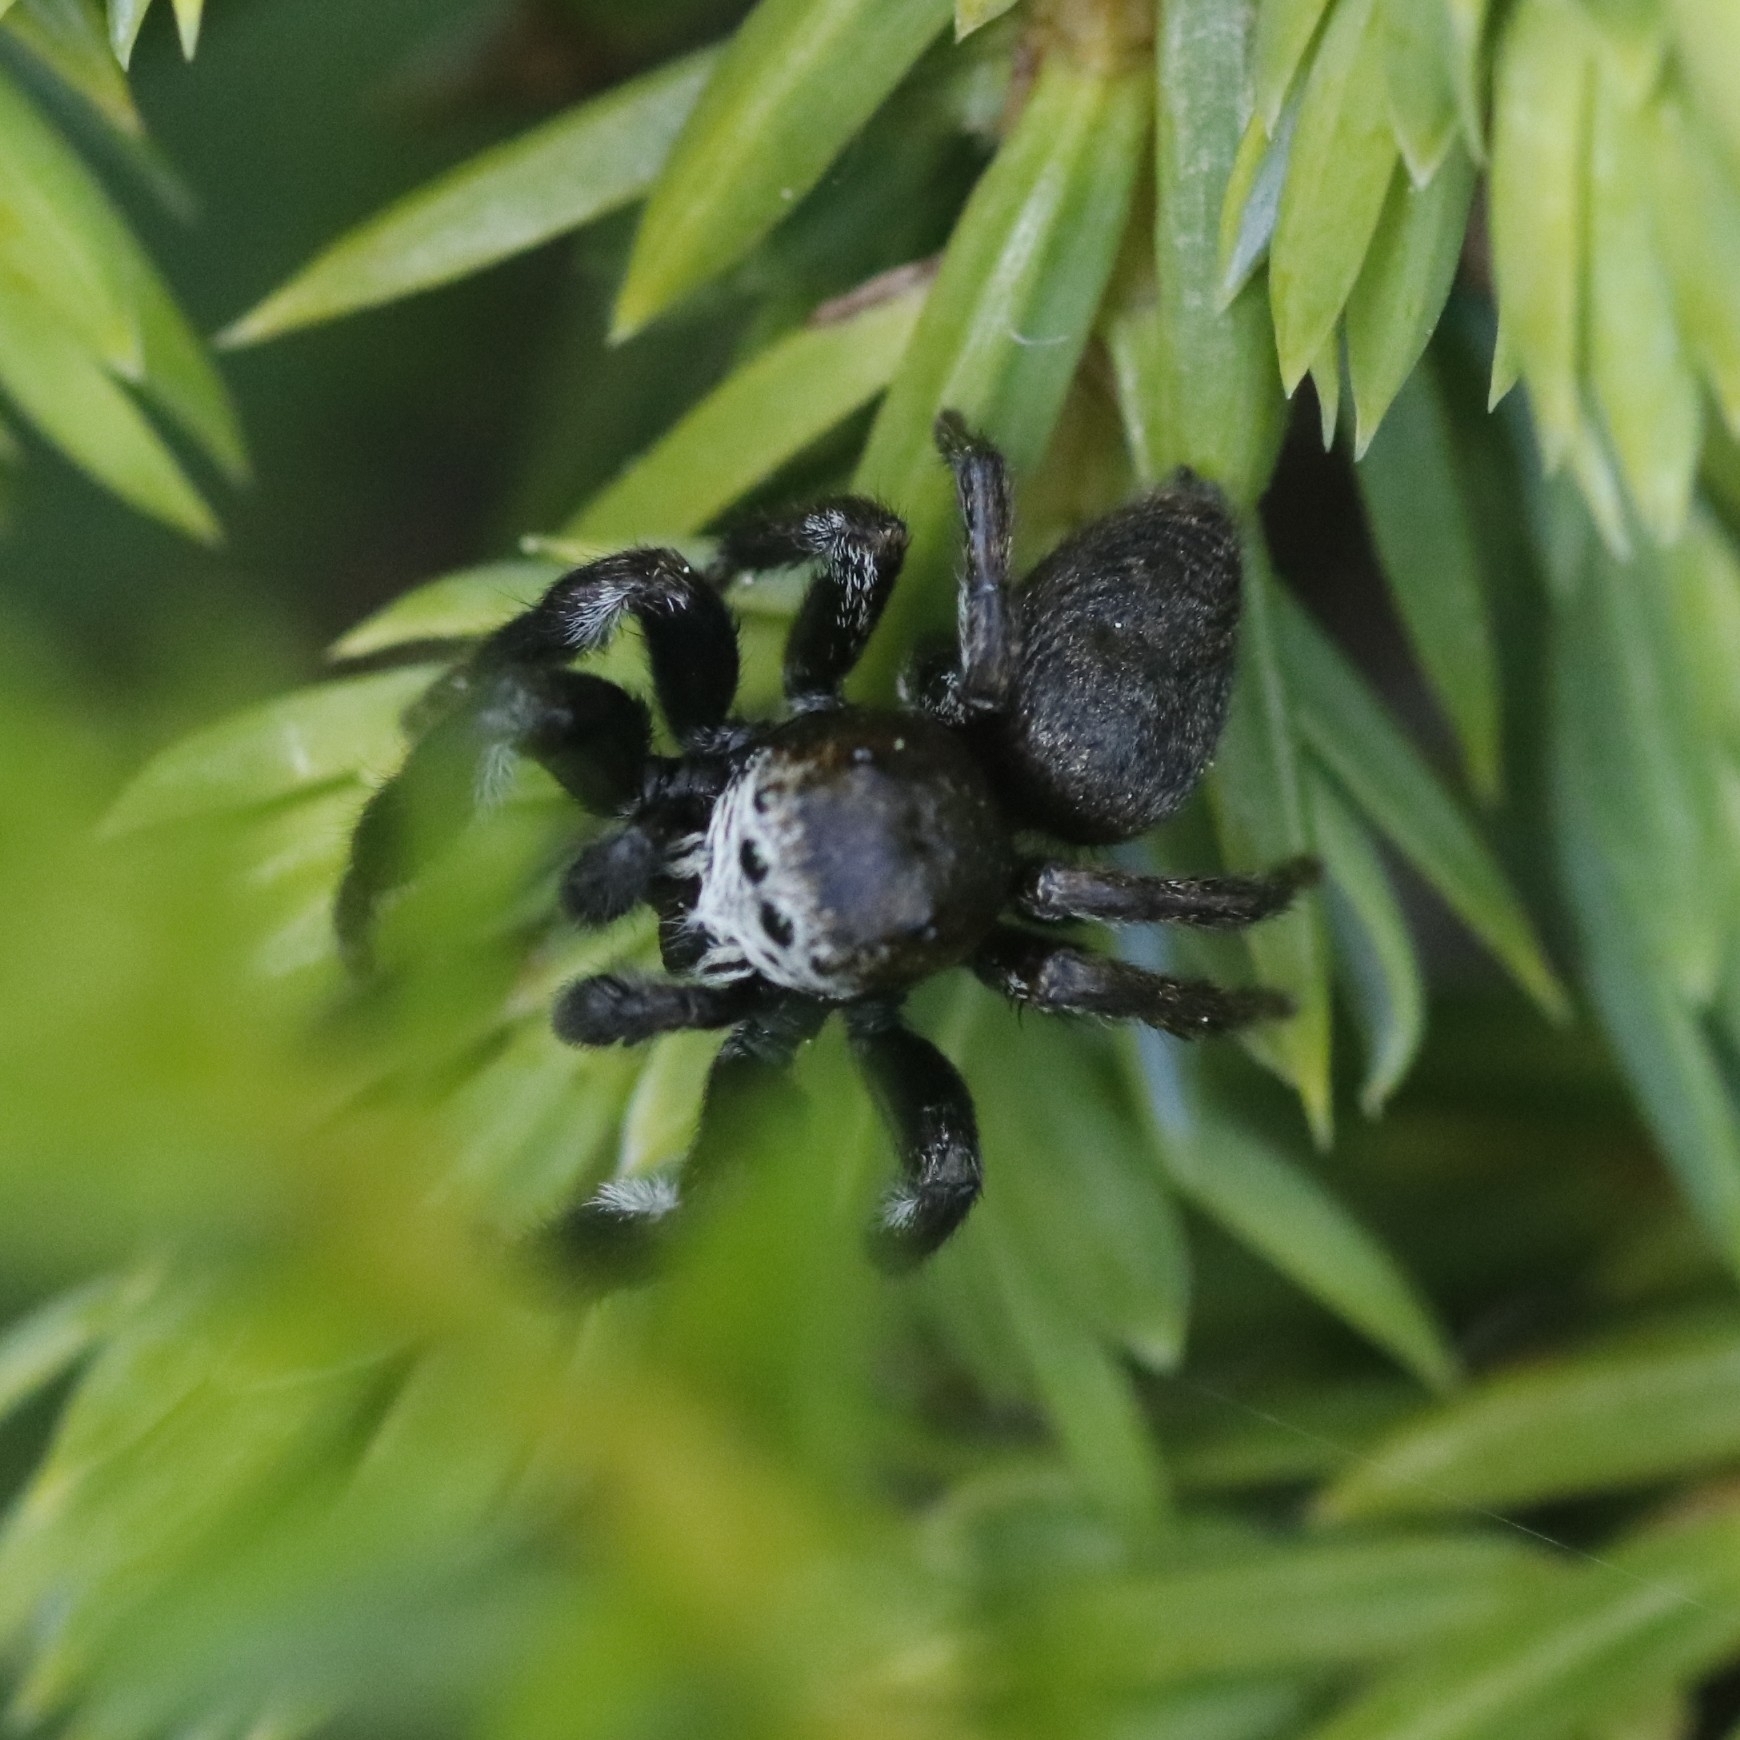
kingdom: Animalia
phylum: Arthropoda
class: Arachnida
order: Araneae
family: Salticidae
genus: Evarcha
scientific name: Evarcha arcuata
